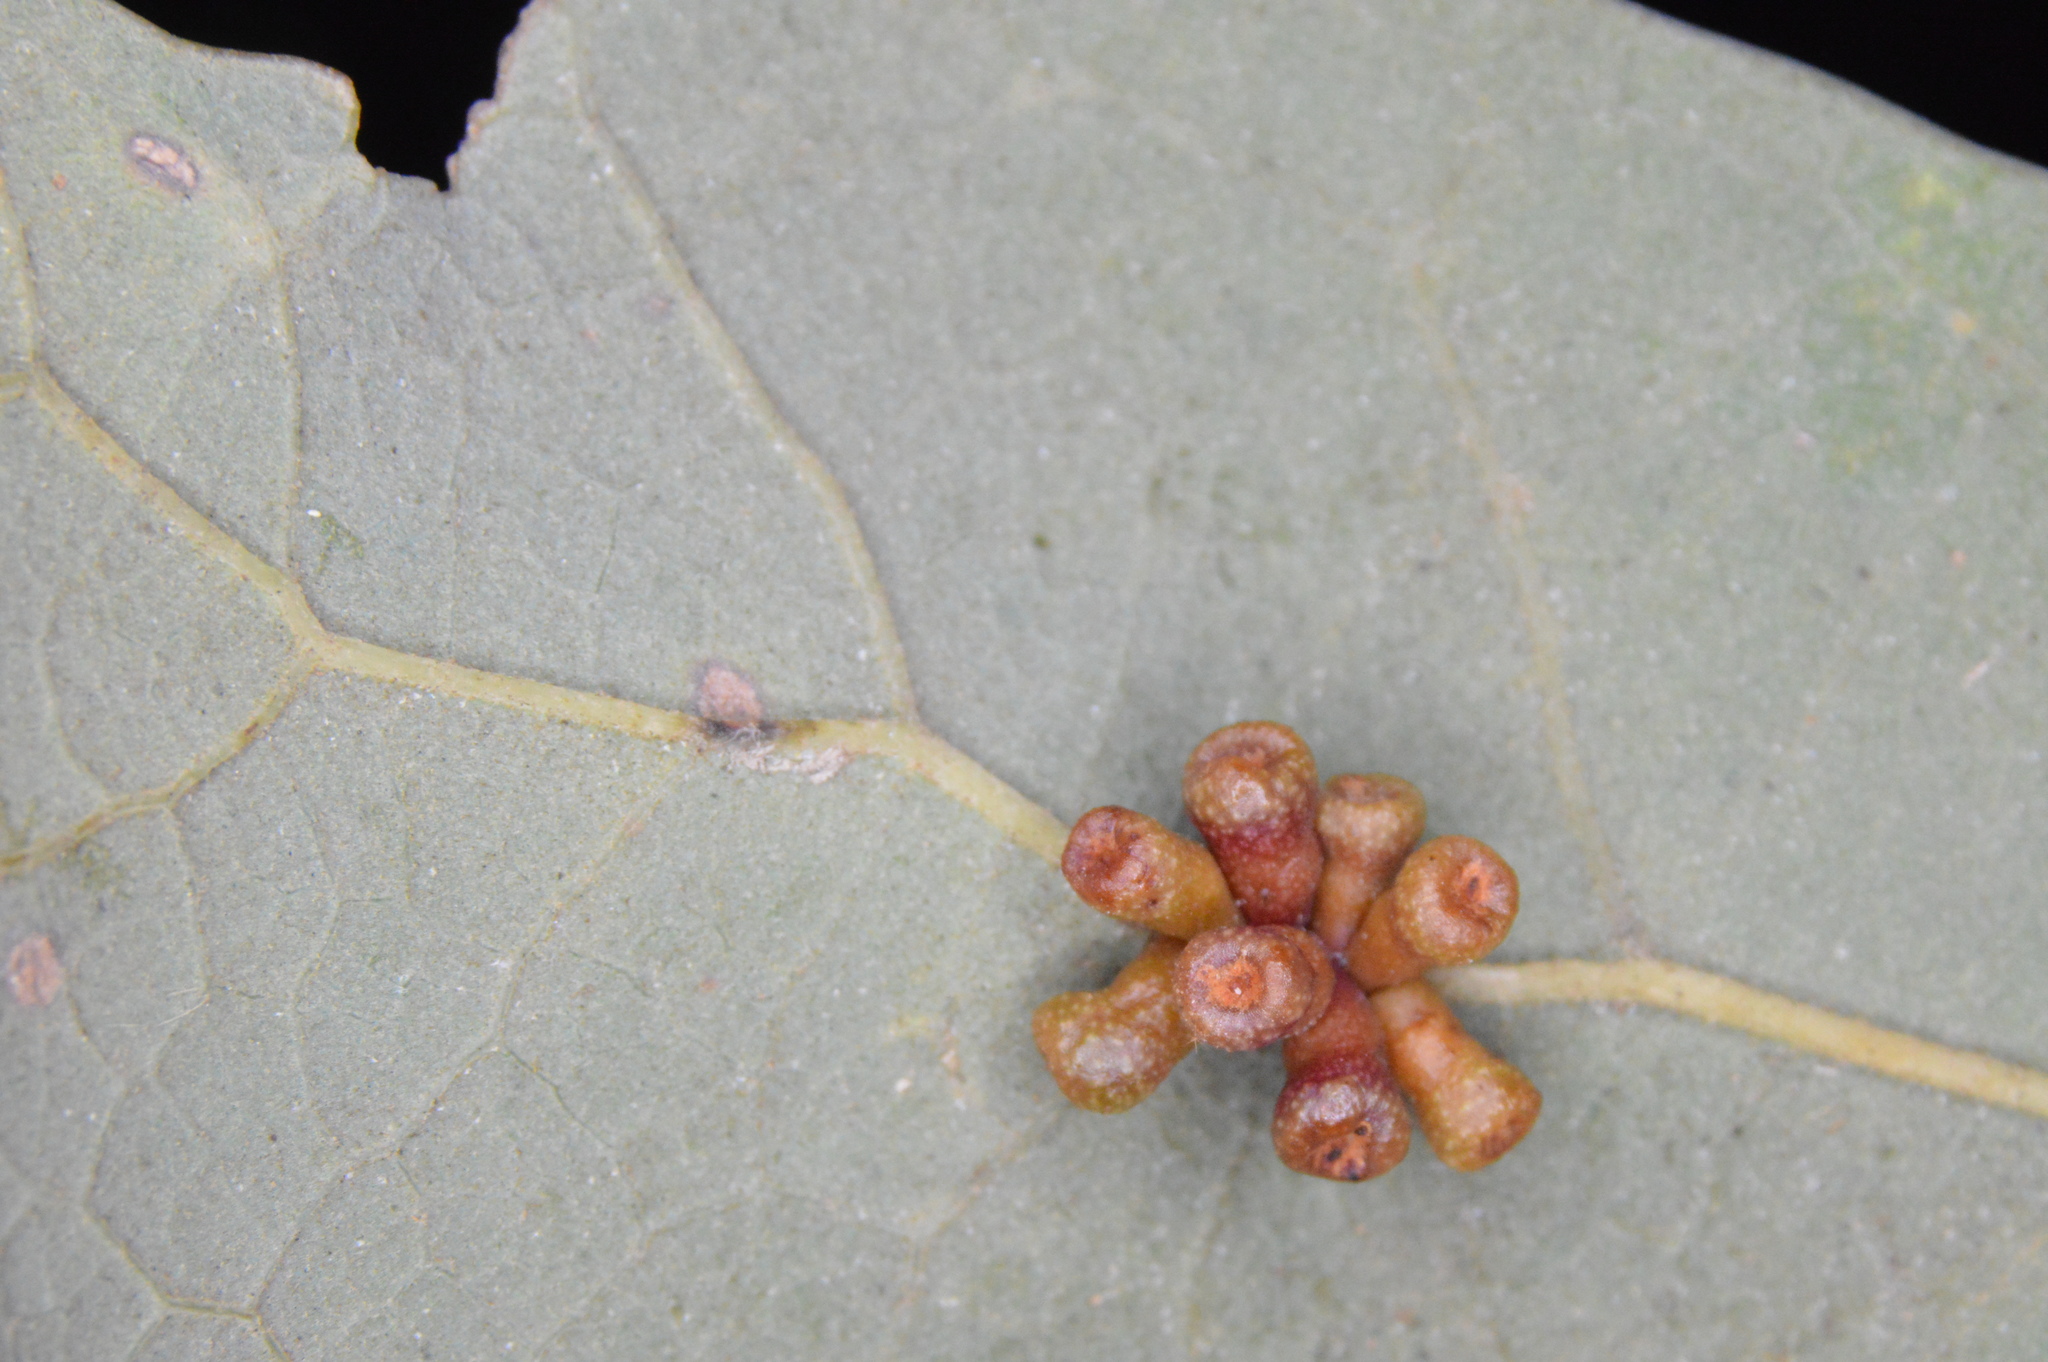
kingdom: Animalia
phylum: Arthropoda
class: Insecta
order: Hymenoptera
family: Cynipidae
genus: Andricus
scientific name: Andricus lustrans
